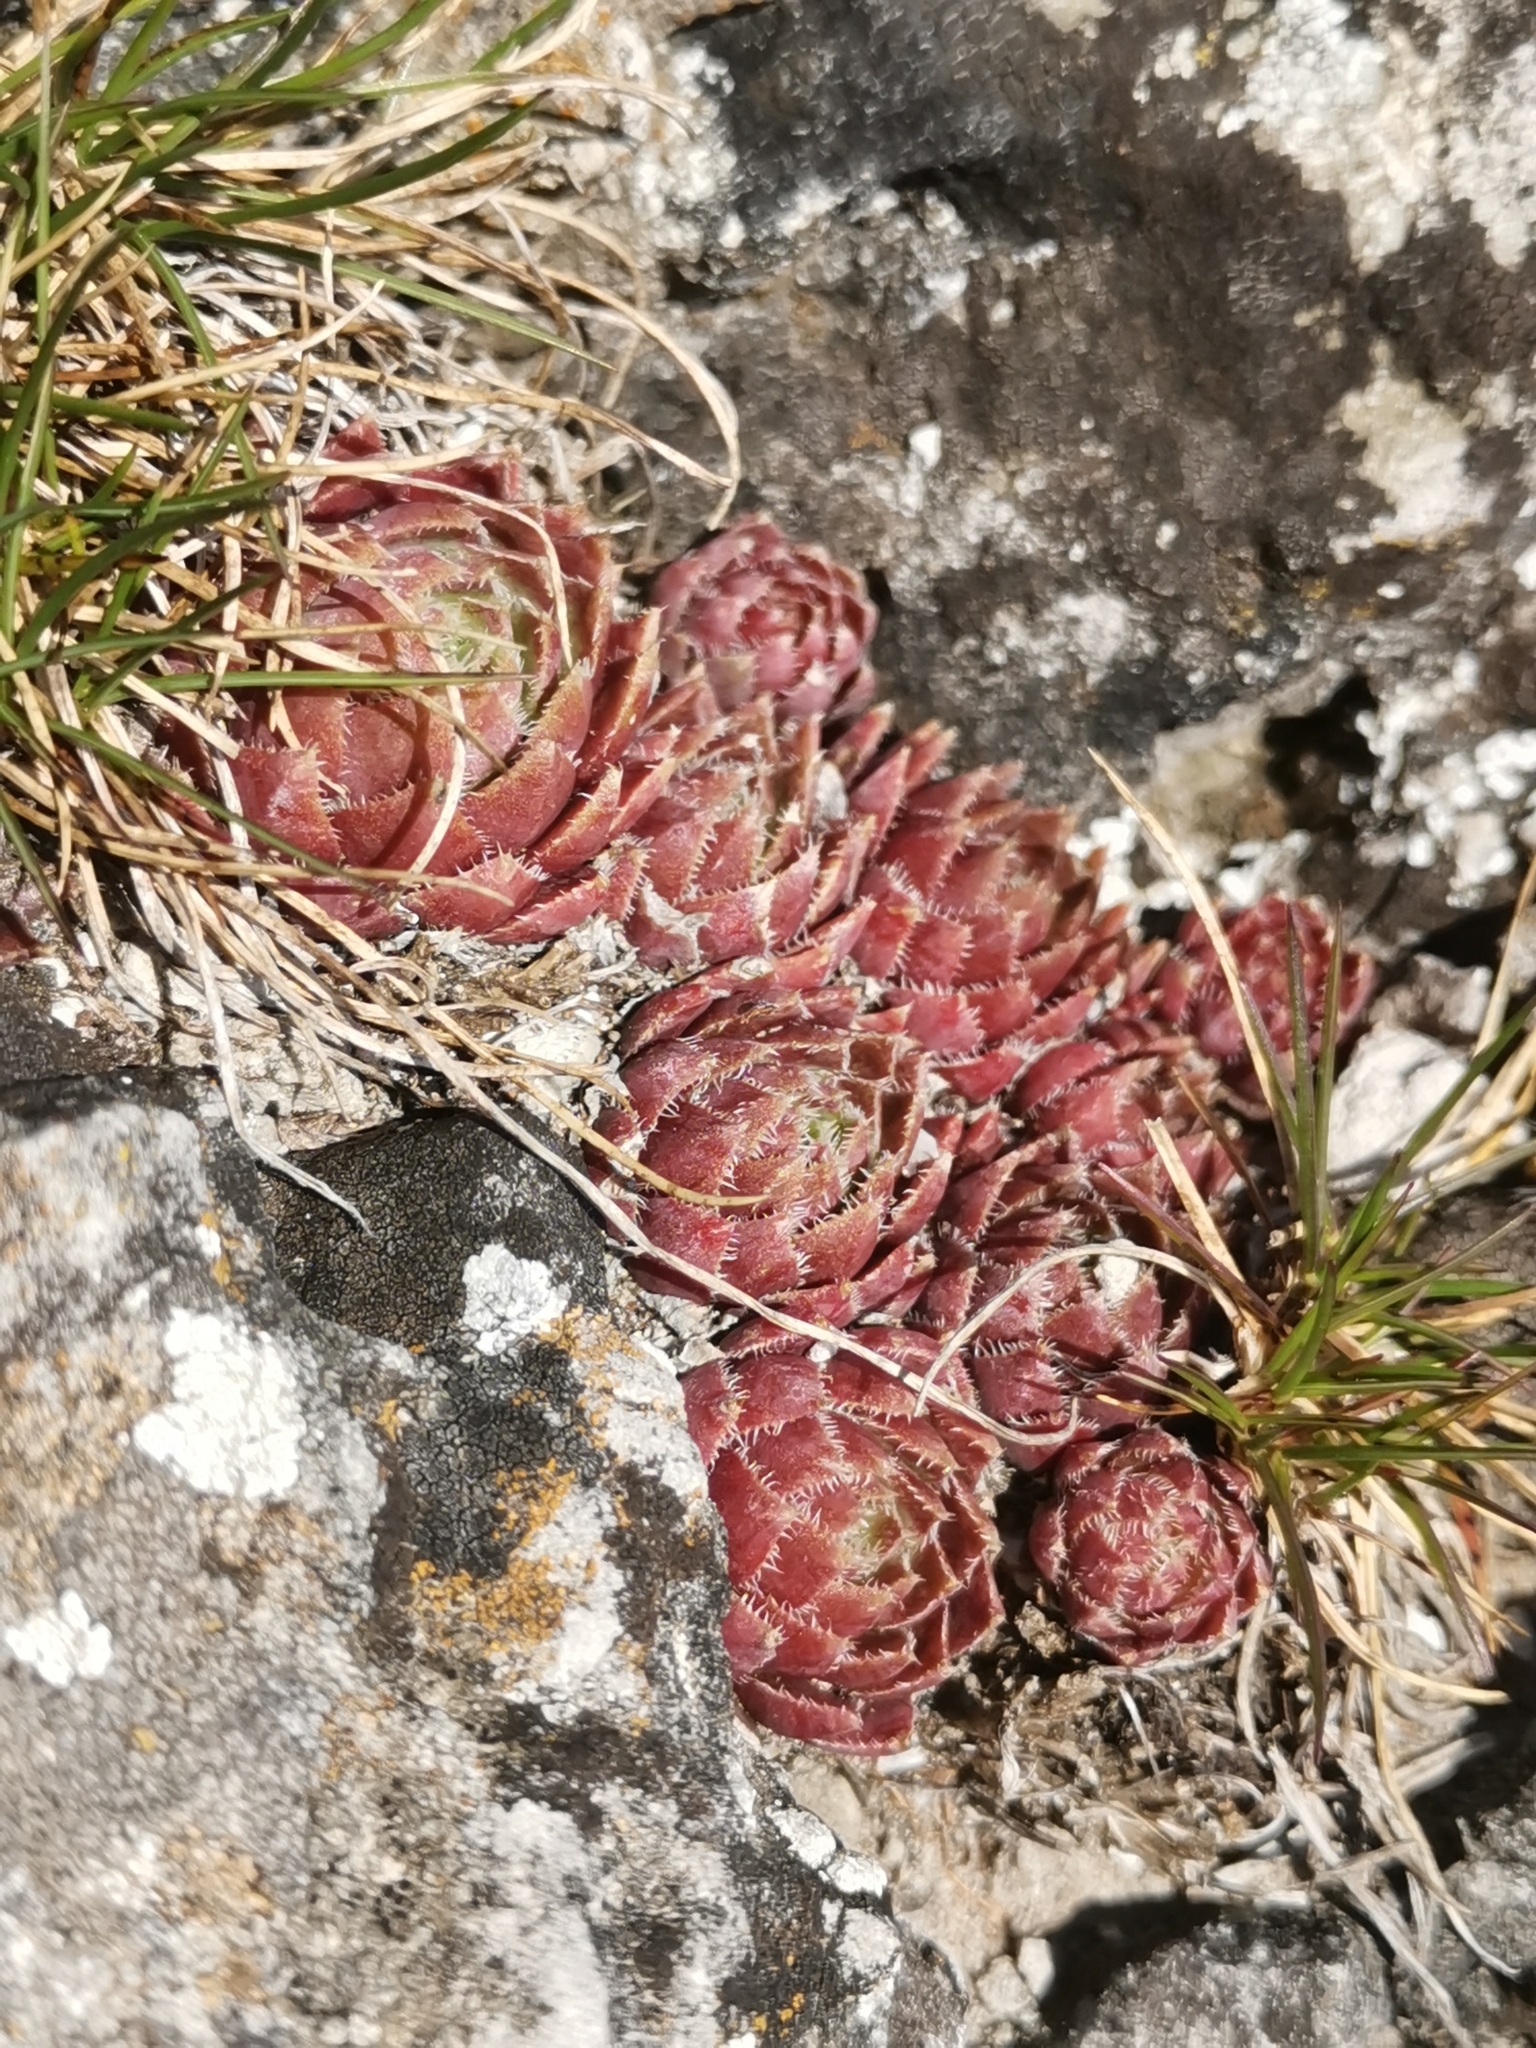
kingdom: Plantae
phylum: Tracheophyta
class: Magnoliopsida
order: Saxifragales
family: Crassulaceae
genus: Sempervivum
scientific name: Sempervivum globiferum
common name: Rolling hen-and-chicks
